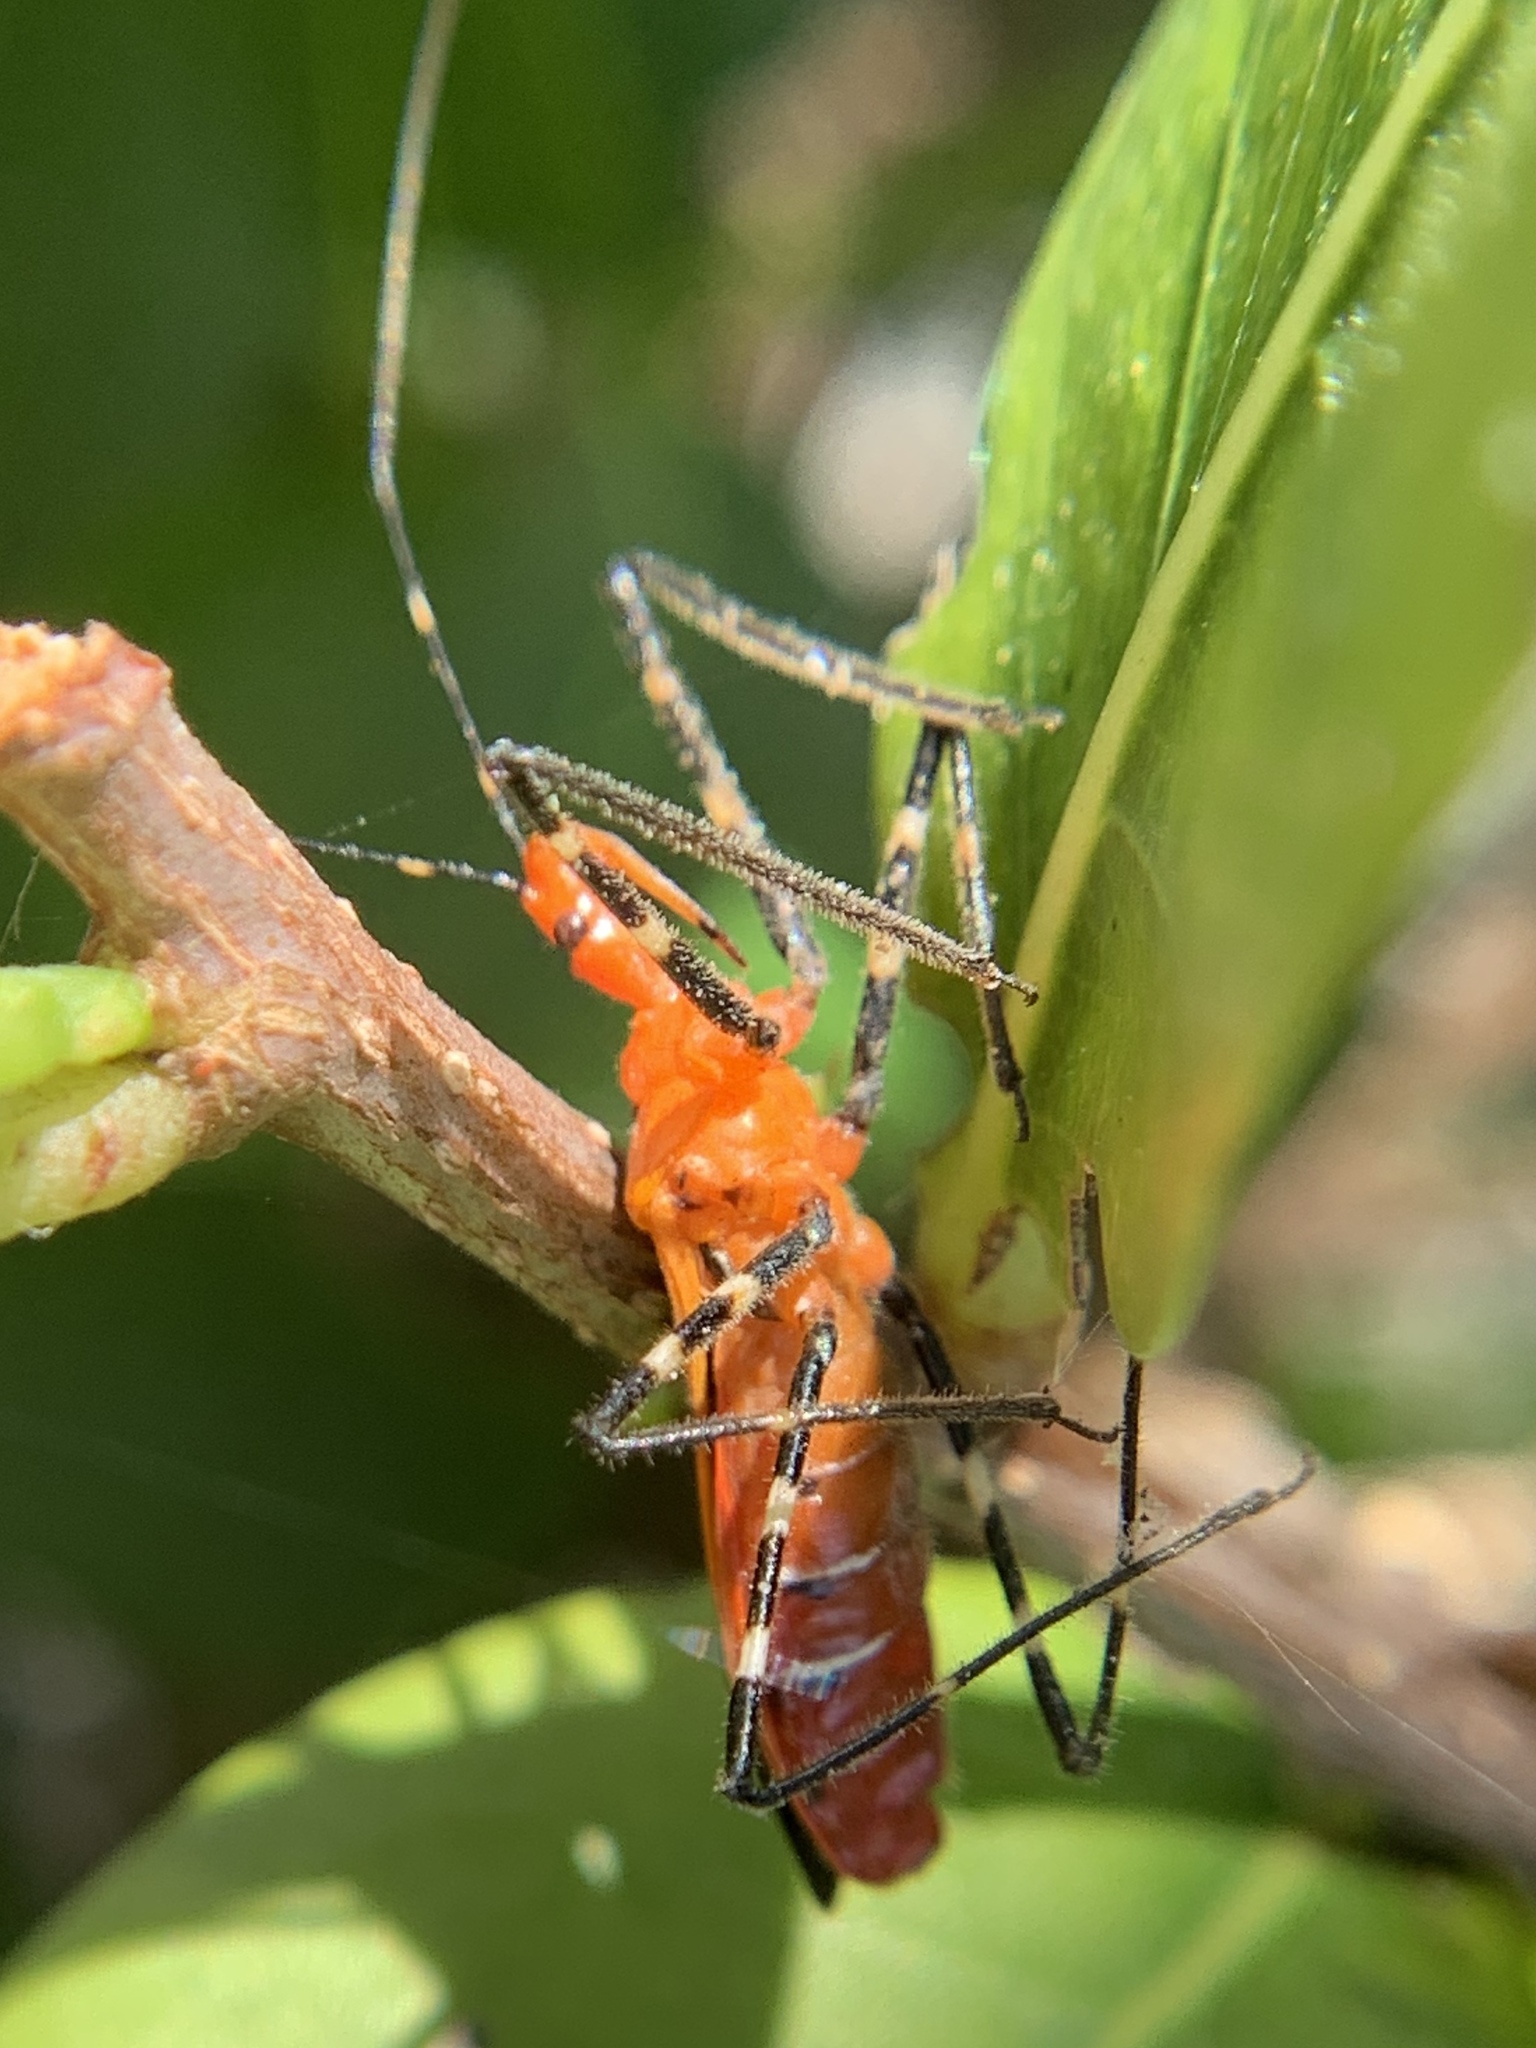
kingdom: Animalia
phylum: Arthropoda
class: Insecta
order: Hemiptera
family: Reduviidae
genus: Zelus
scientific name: Zelus longipes
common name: Milkweed assassin bug
